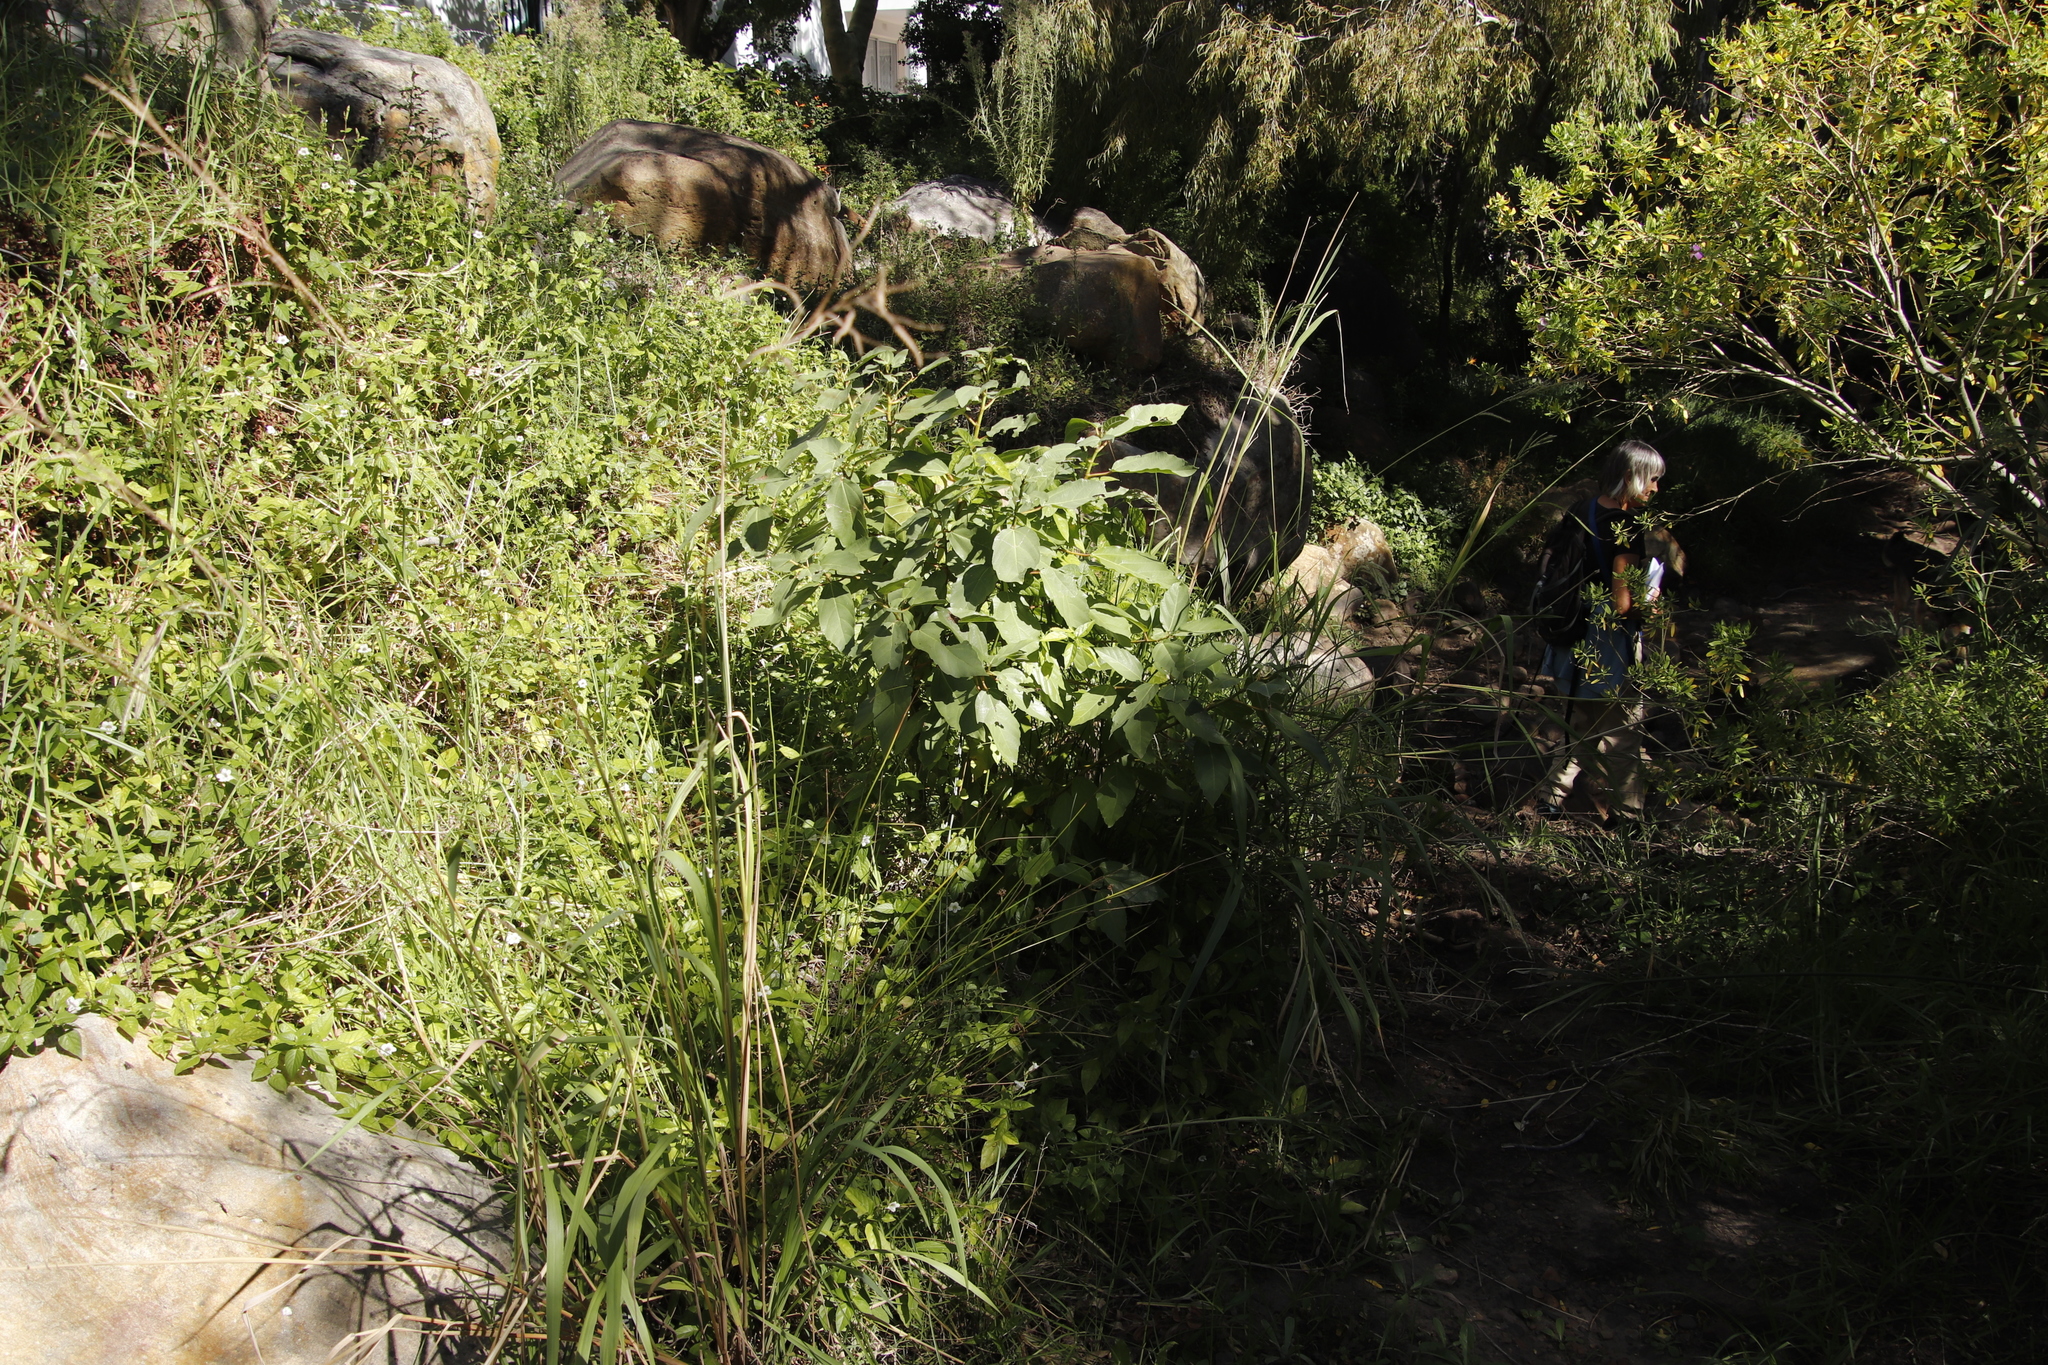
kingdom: Plantae
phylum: Tracheophyta
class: Magnoliopsida
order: Rosales
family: Moraceae
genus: Ficus
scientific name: Ficus sur
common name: Cape fig
